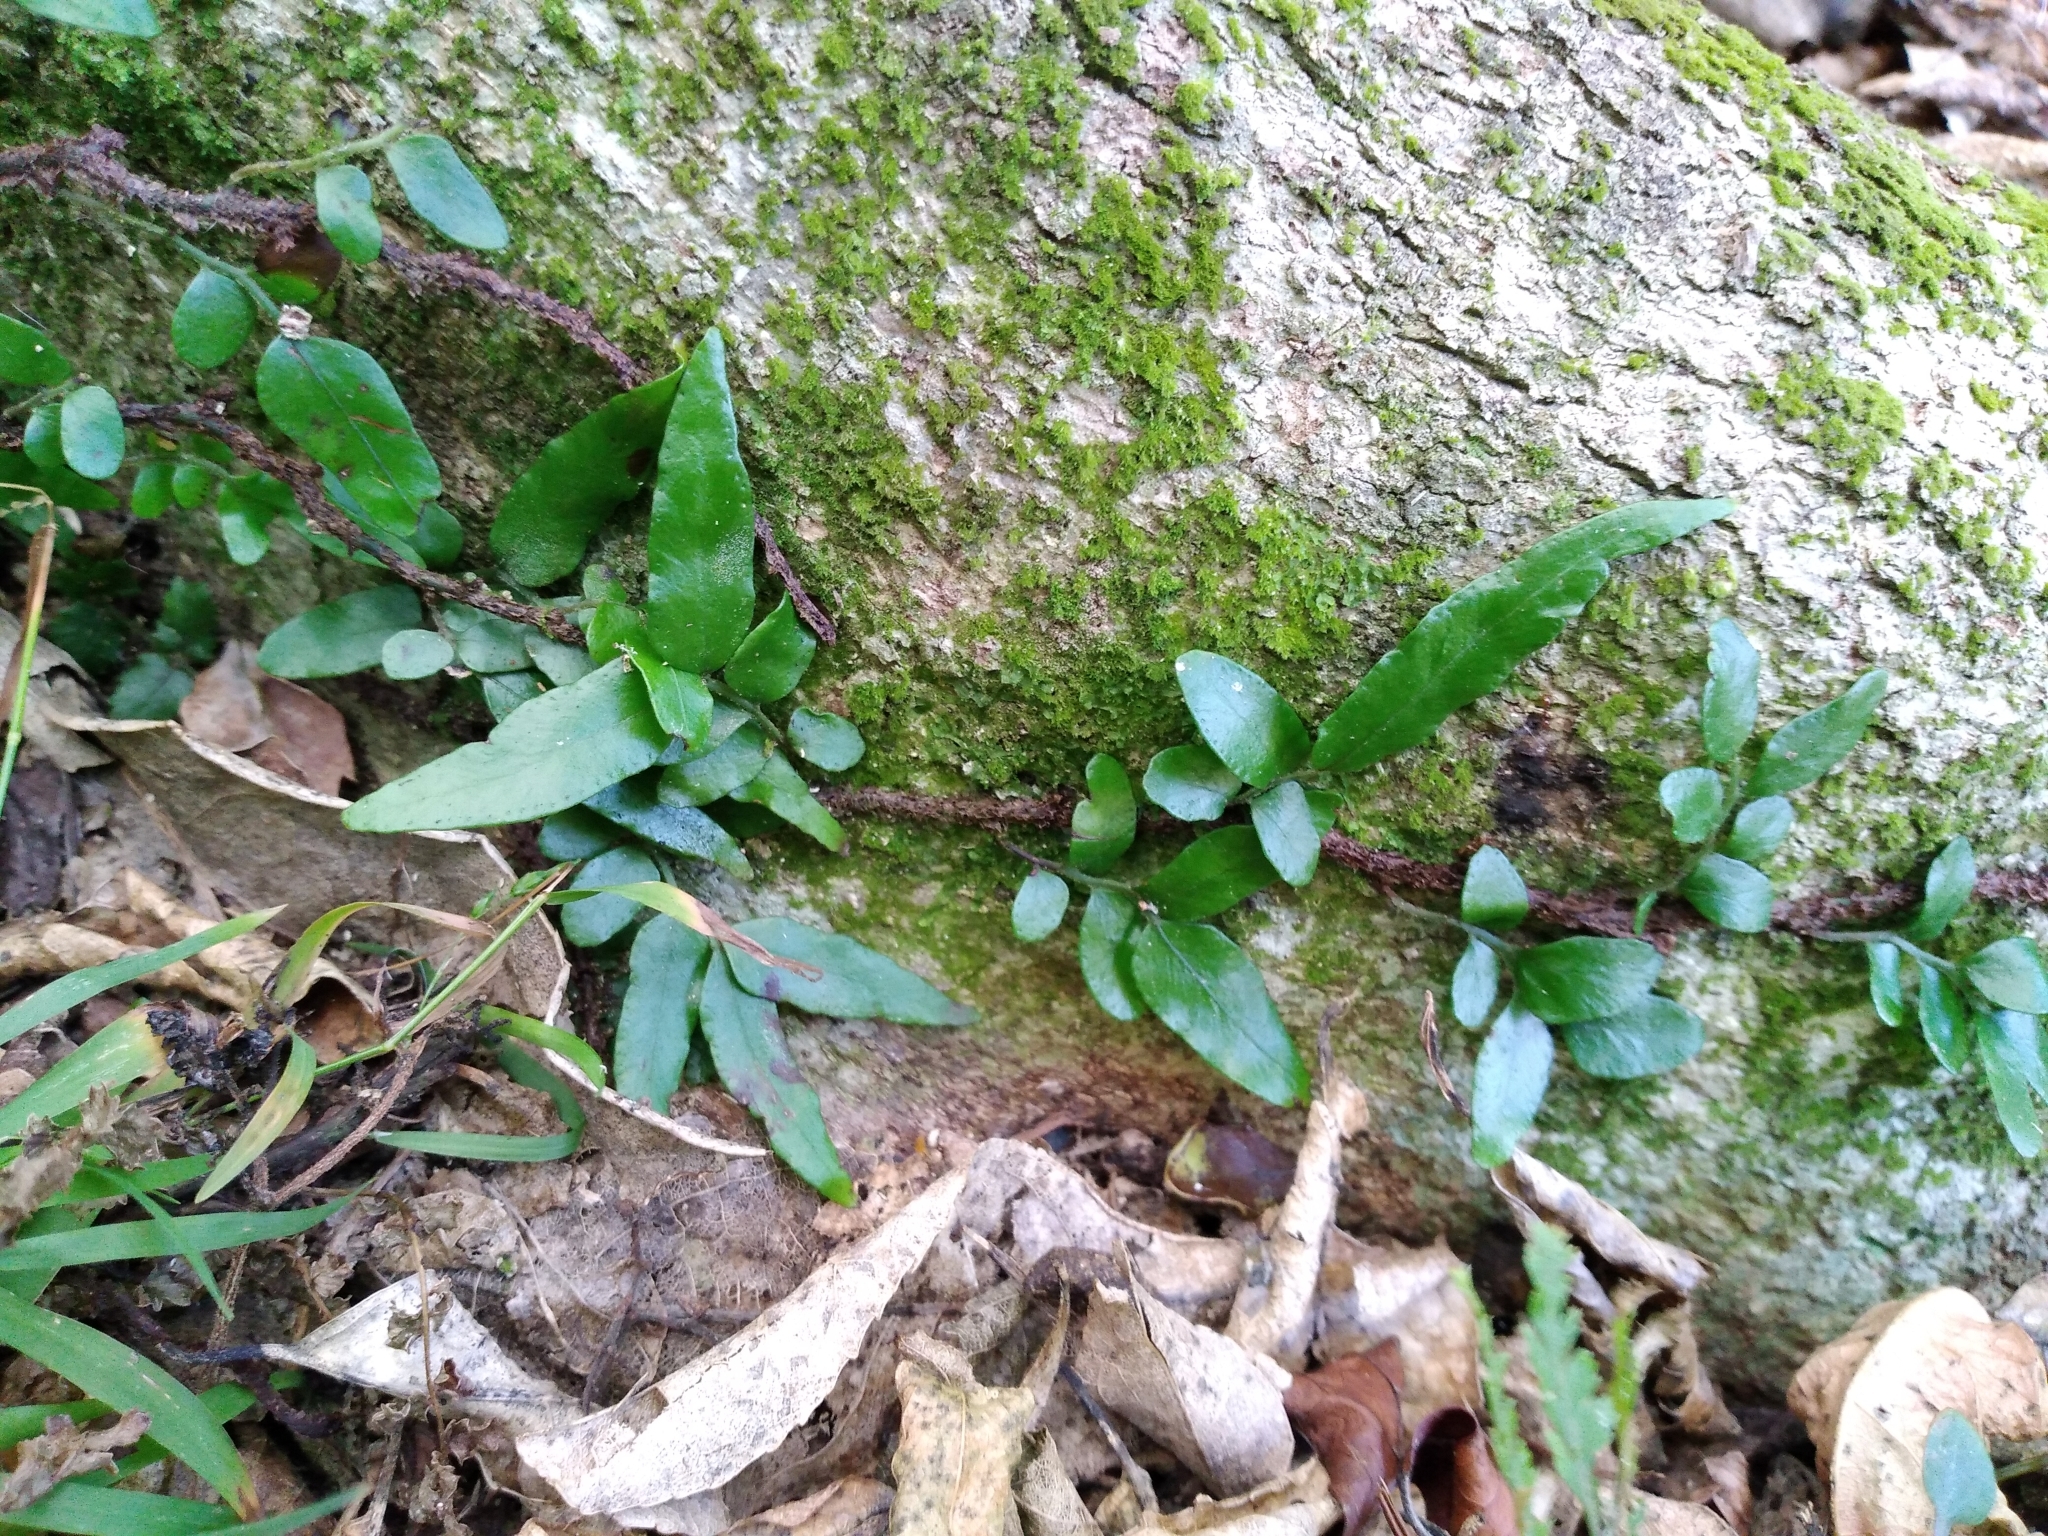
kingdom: Plantae
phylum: Tracheophyta
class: Polypodiopsida
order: Polypodiales
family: Tectariaceae
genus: Arthropteris
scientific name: Arthropteris tenella
